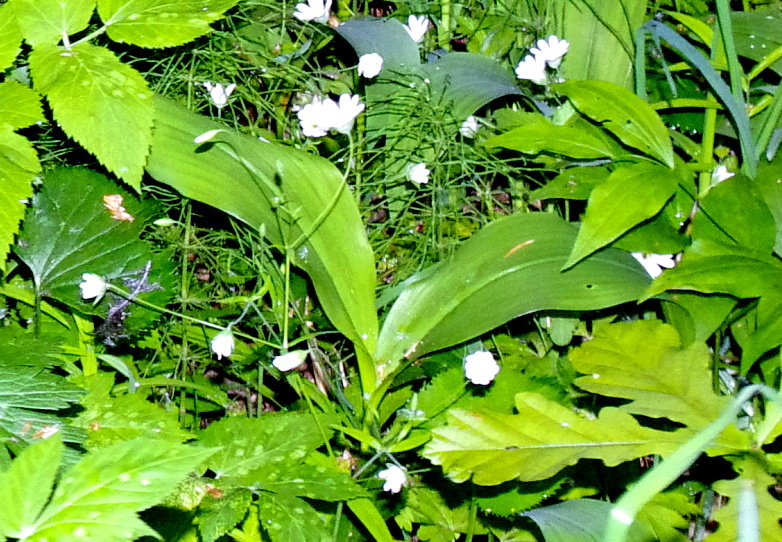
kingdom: Plantae
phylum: Tracheophyta
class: Liliopsida
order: Asparagales
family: Asparagaceae
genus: Convallaria
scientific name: Convallaria majalis
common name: Lily-of-the-valley
